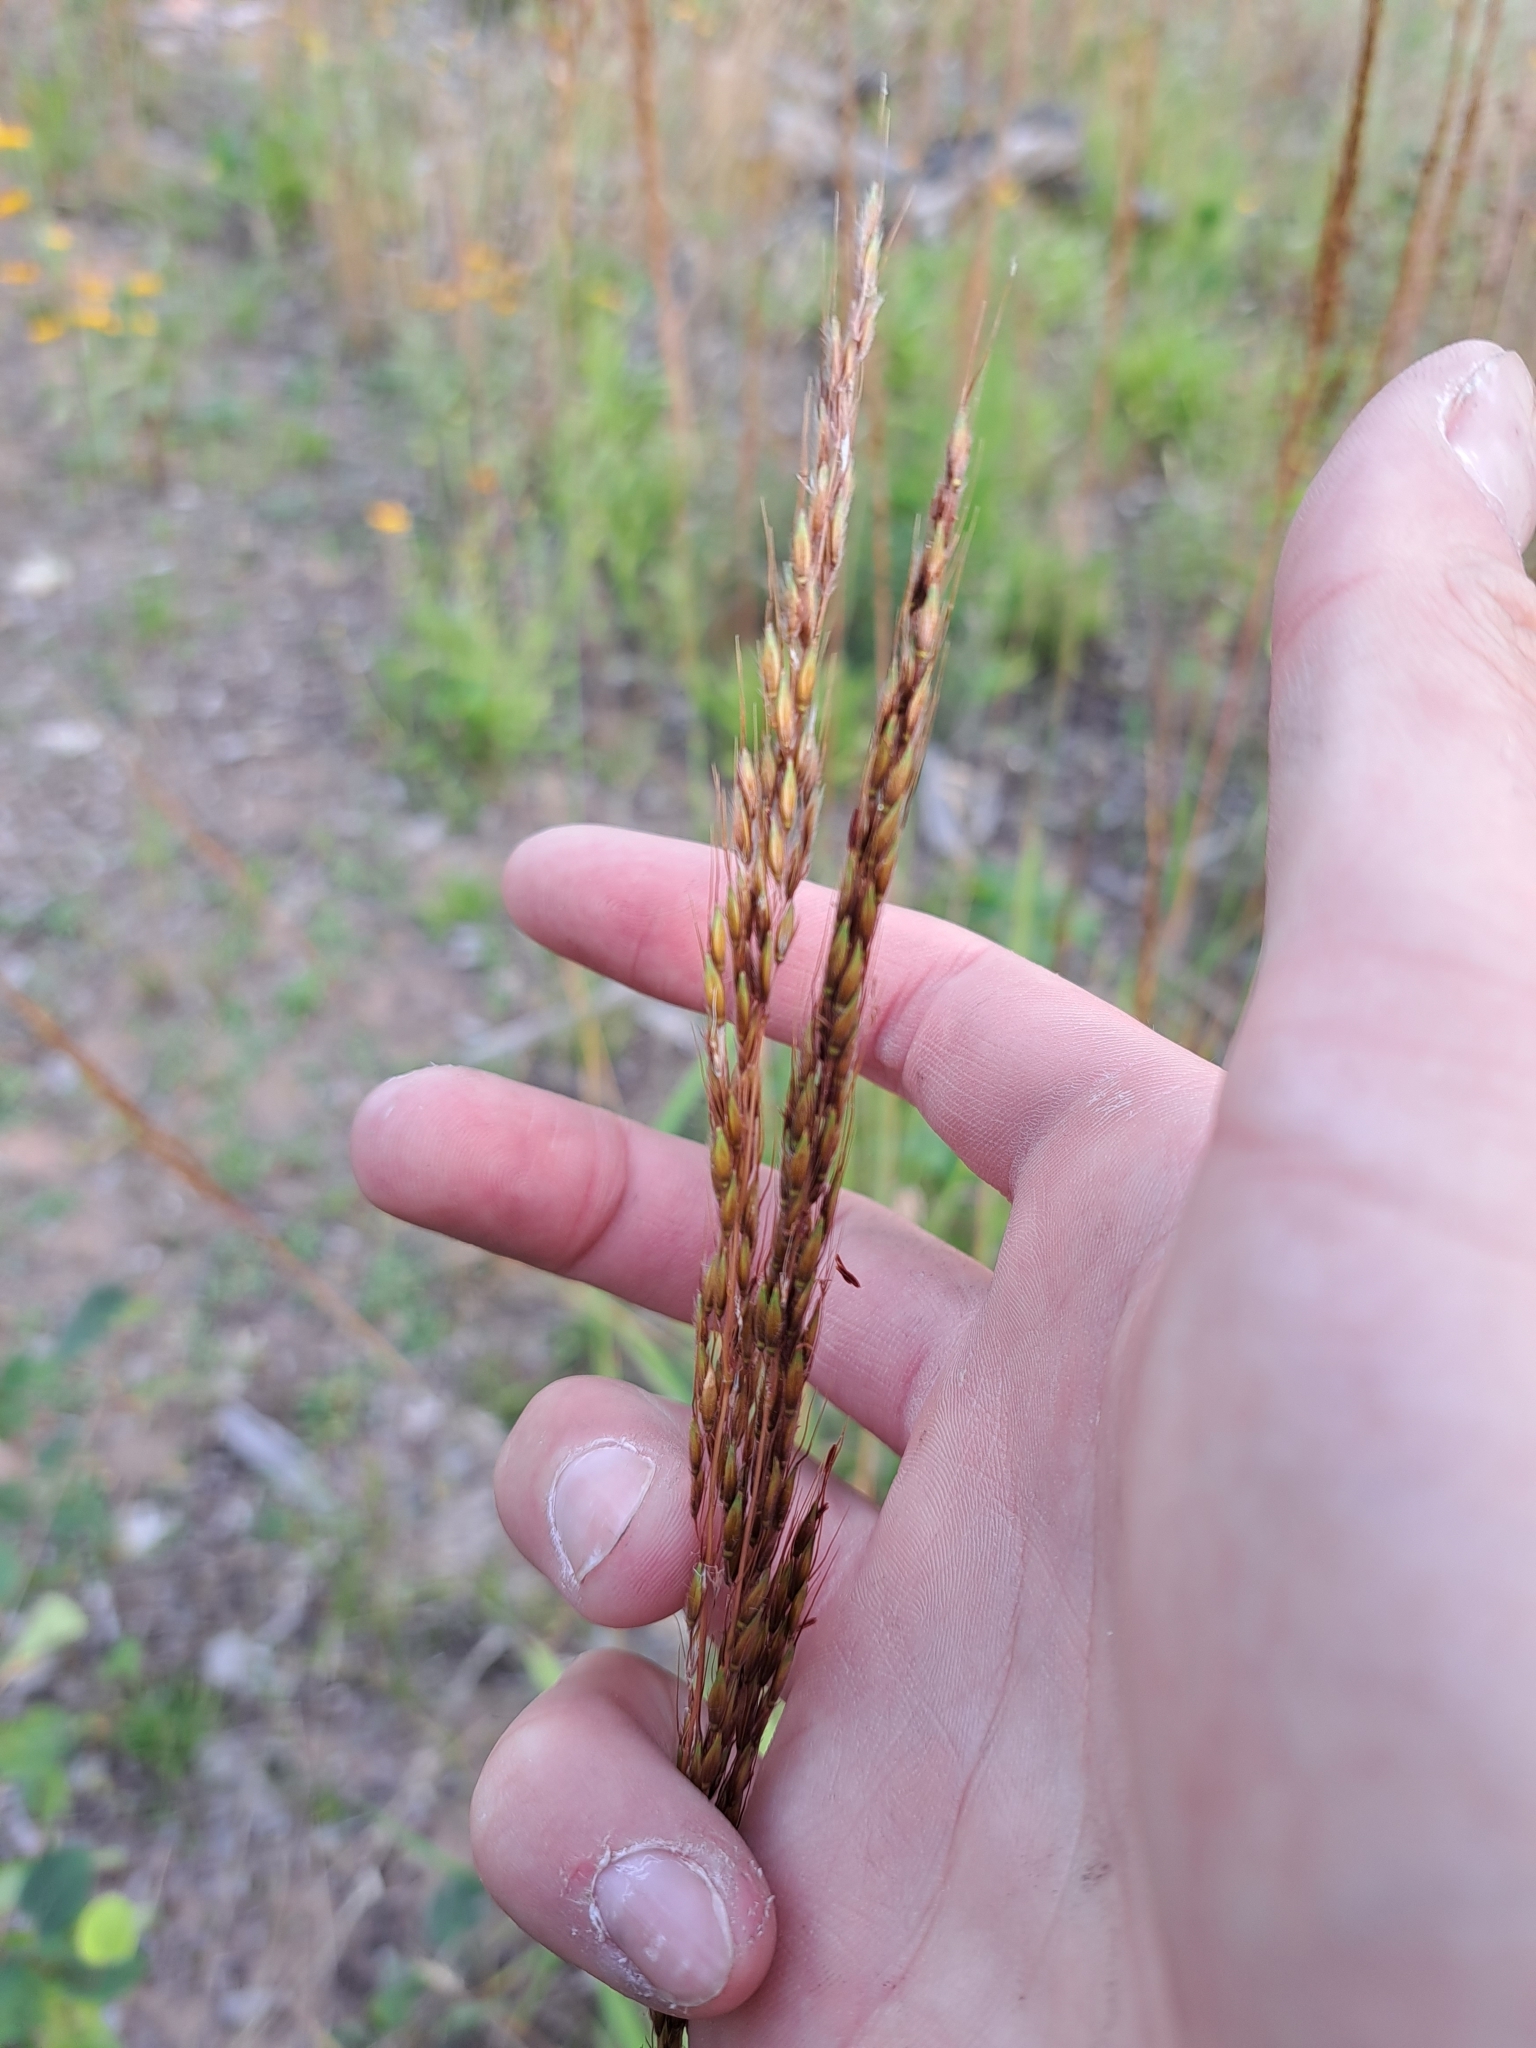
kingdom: Plantae
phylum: Tracheophyta
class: Liliopsida
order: Poales
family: Poaceae
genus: Sorghastrum
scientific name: Sorghastrum nutans
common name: Indian grass
